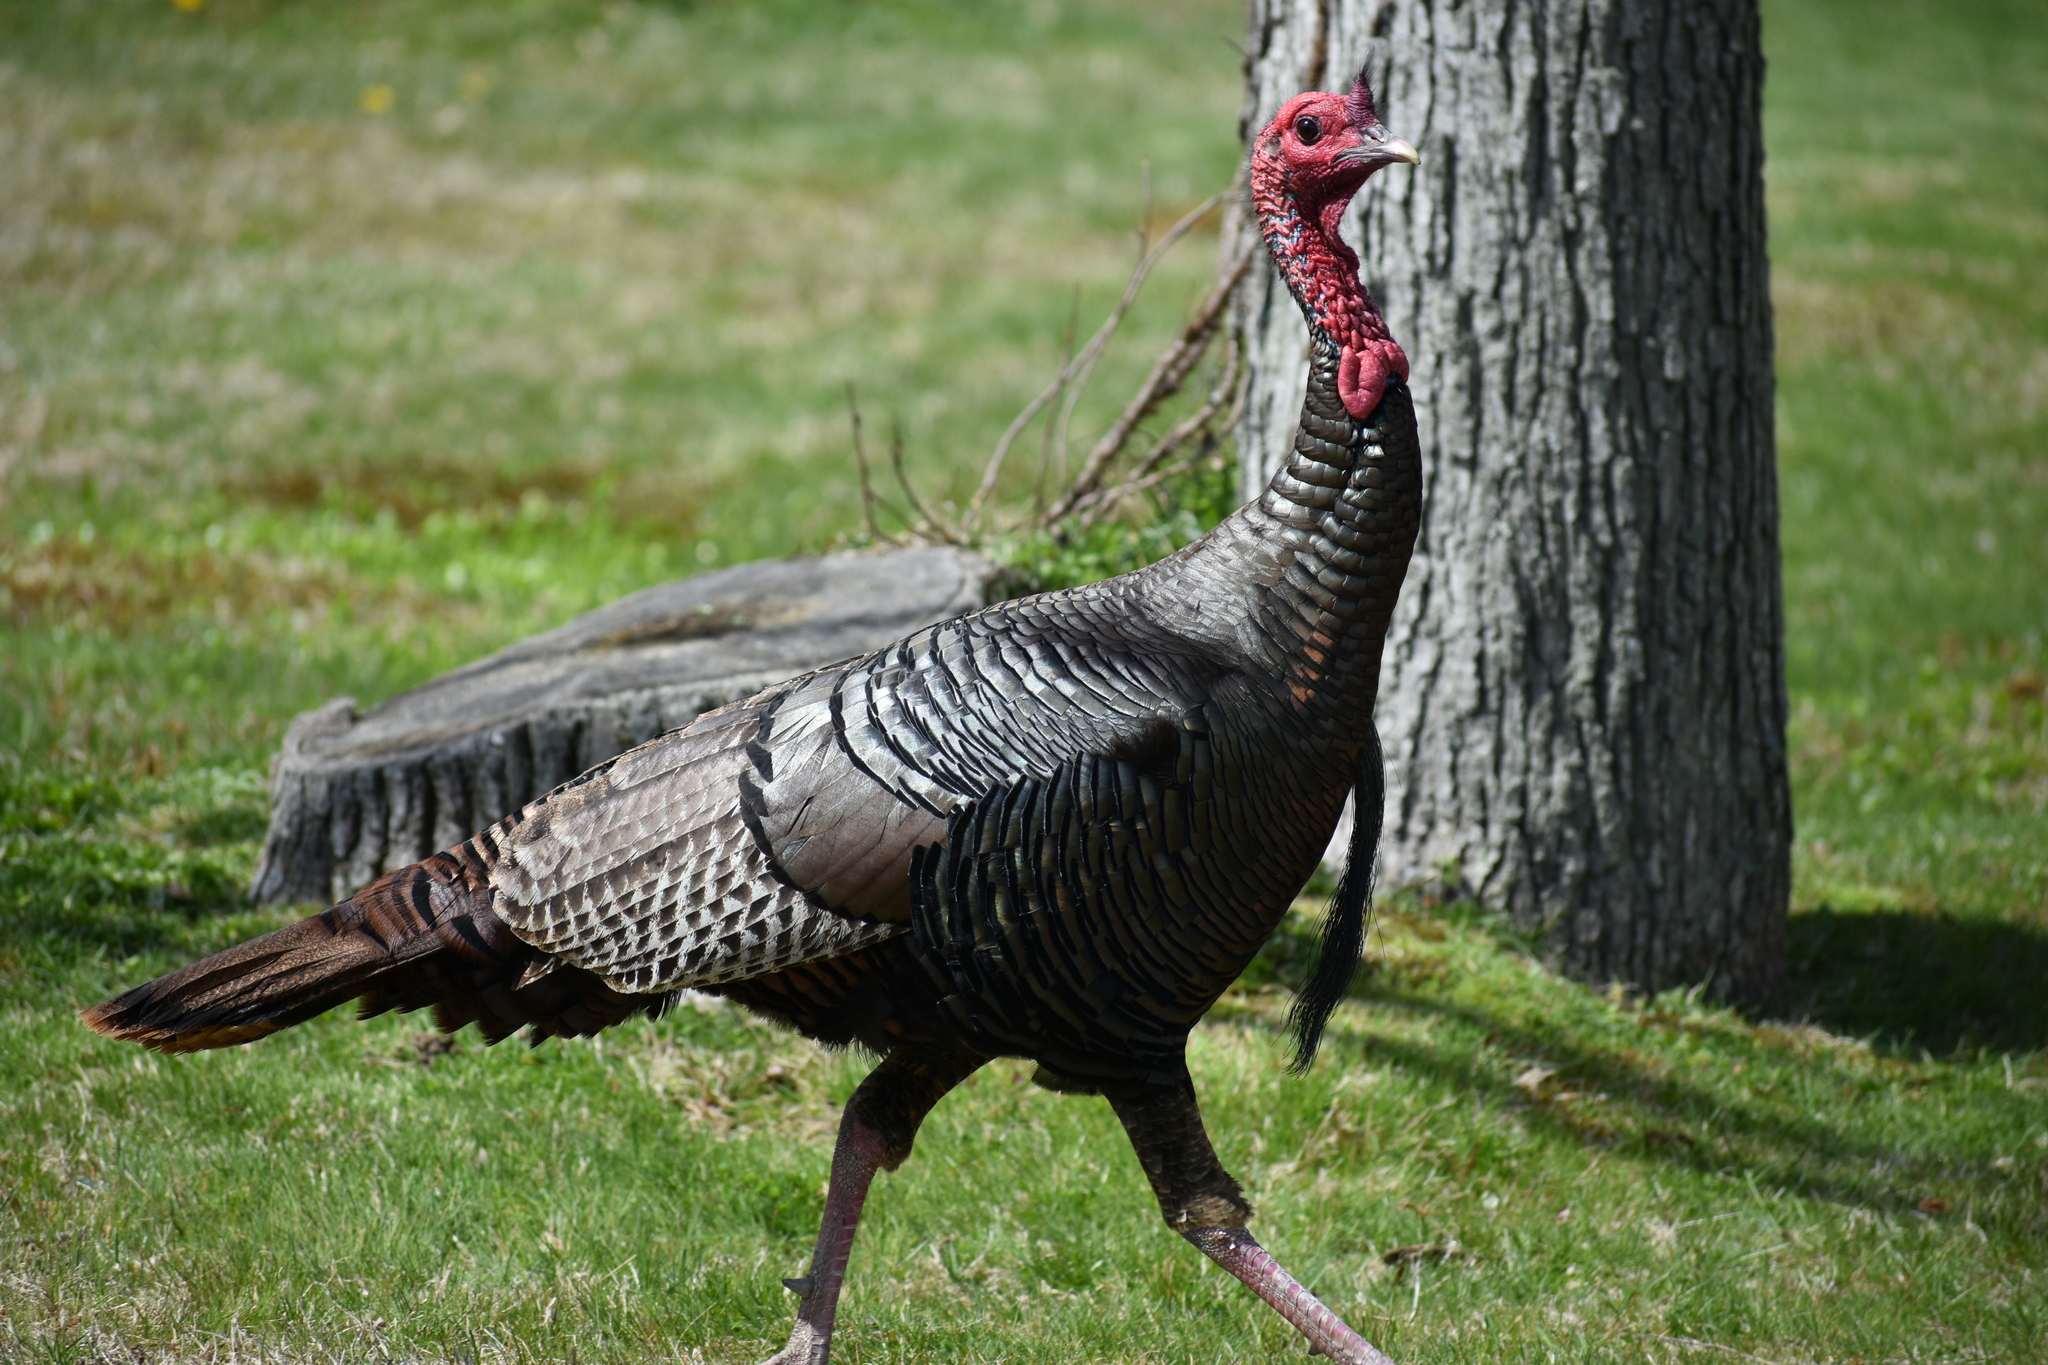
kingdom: Animalia
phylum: Chordata
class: Aves
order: Galliformes
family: Phasianidae
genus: Meleagris
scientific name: Meleagris gallopavo
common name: Wild turkey
